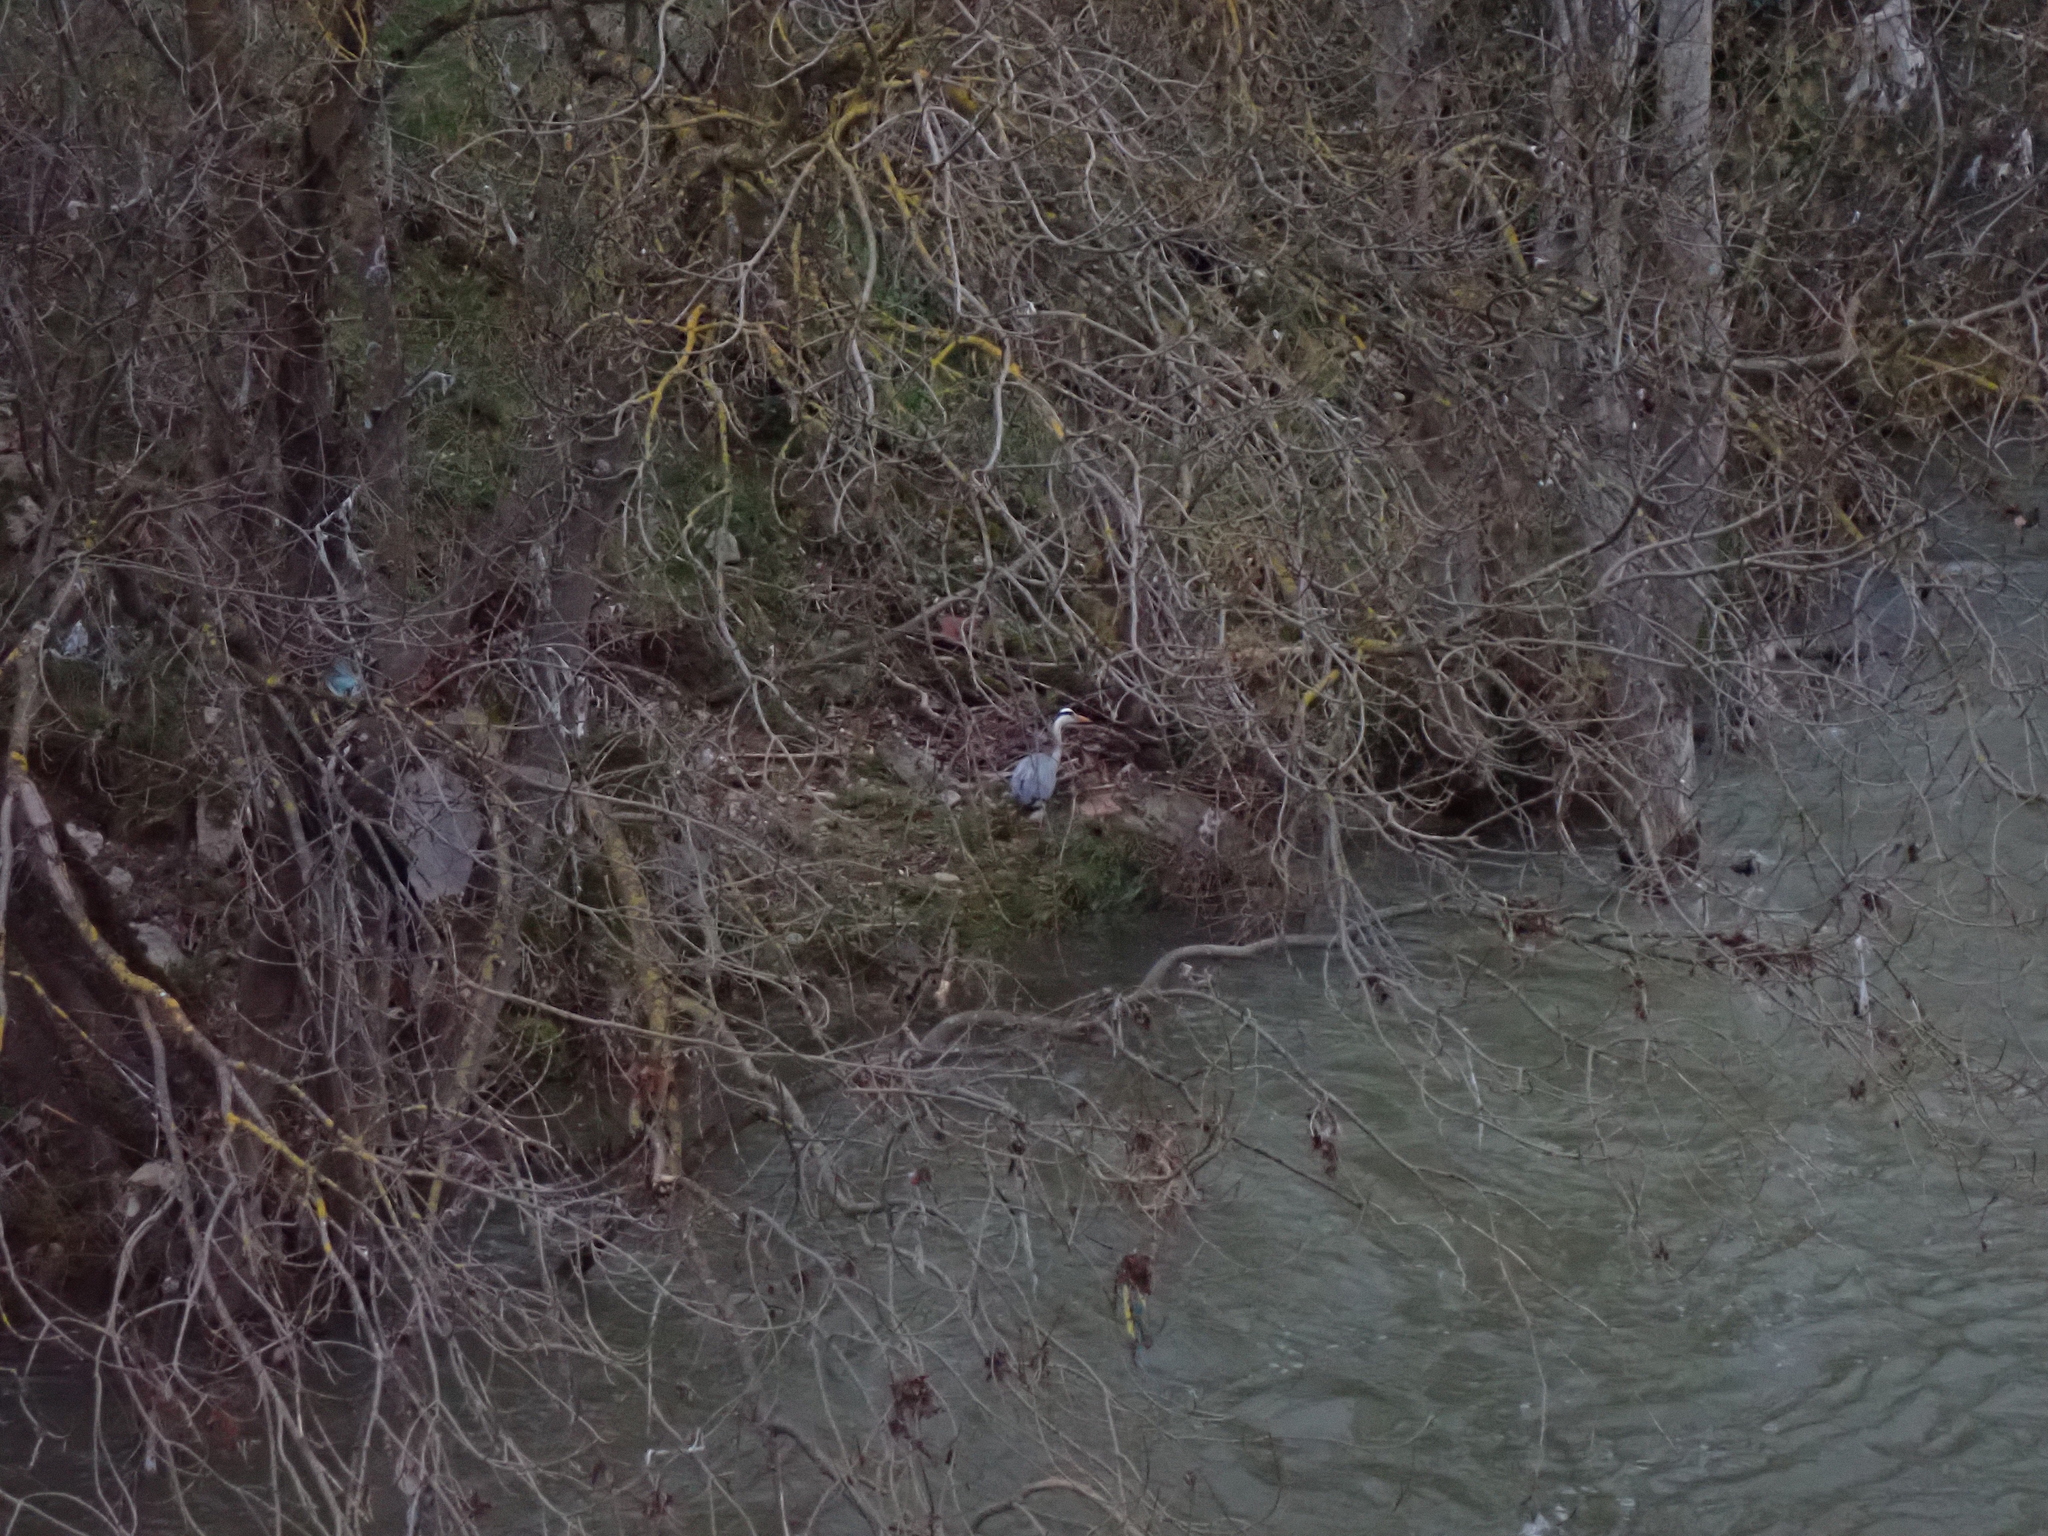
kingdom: Animalia
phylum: Chordata
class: Aves
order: Pelecaniformes
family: Ardeidae
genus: Ardea
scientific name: Ardea cinerea
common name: Grey heron
